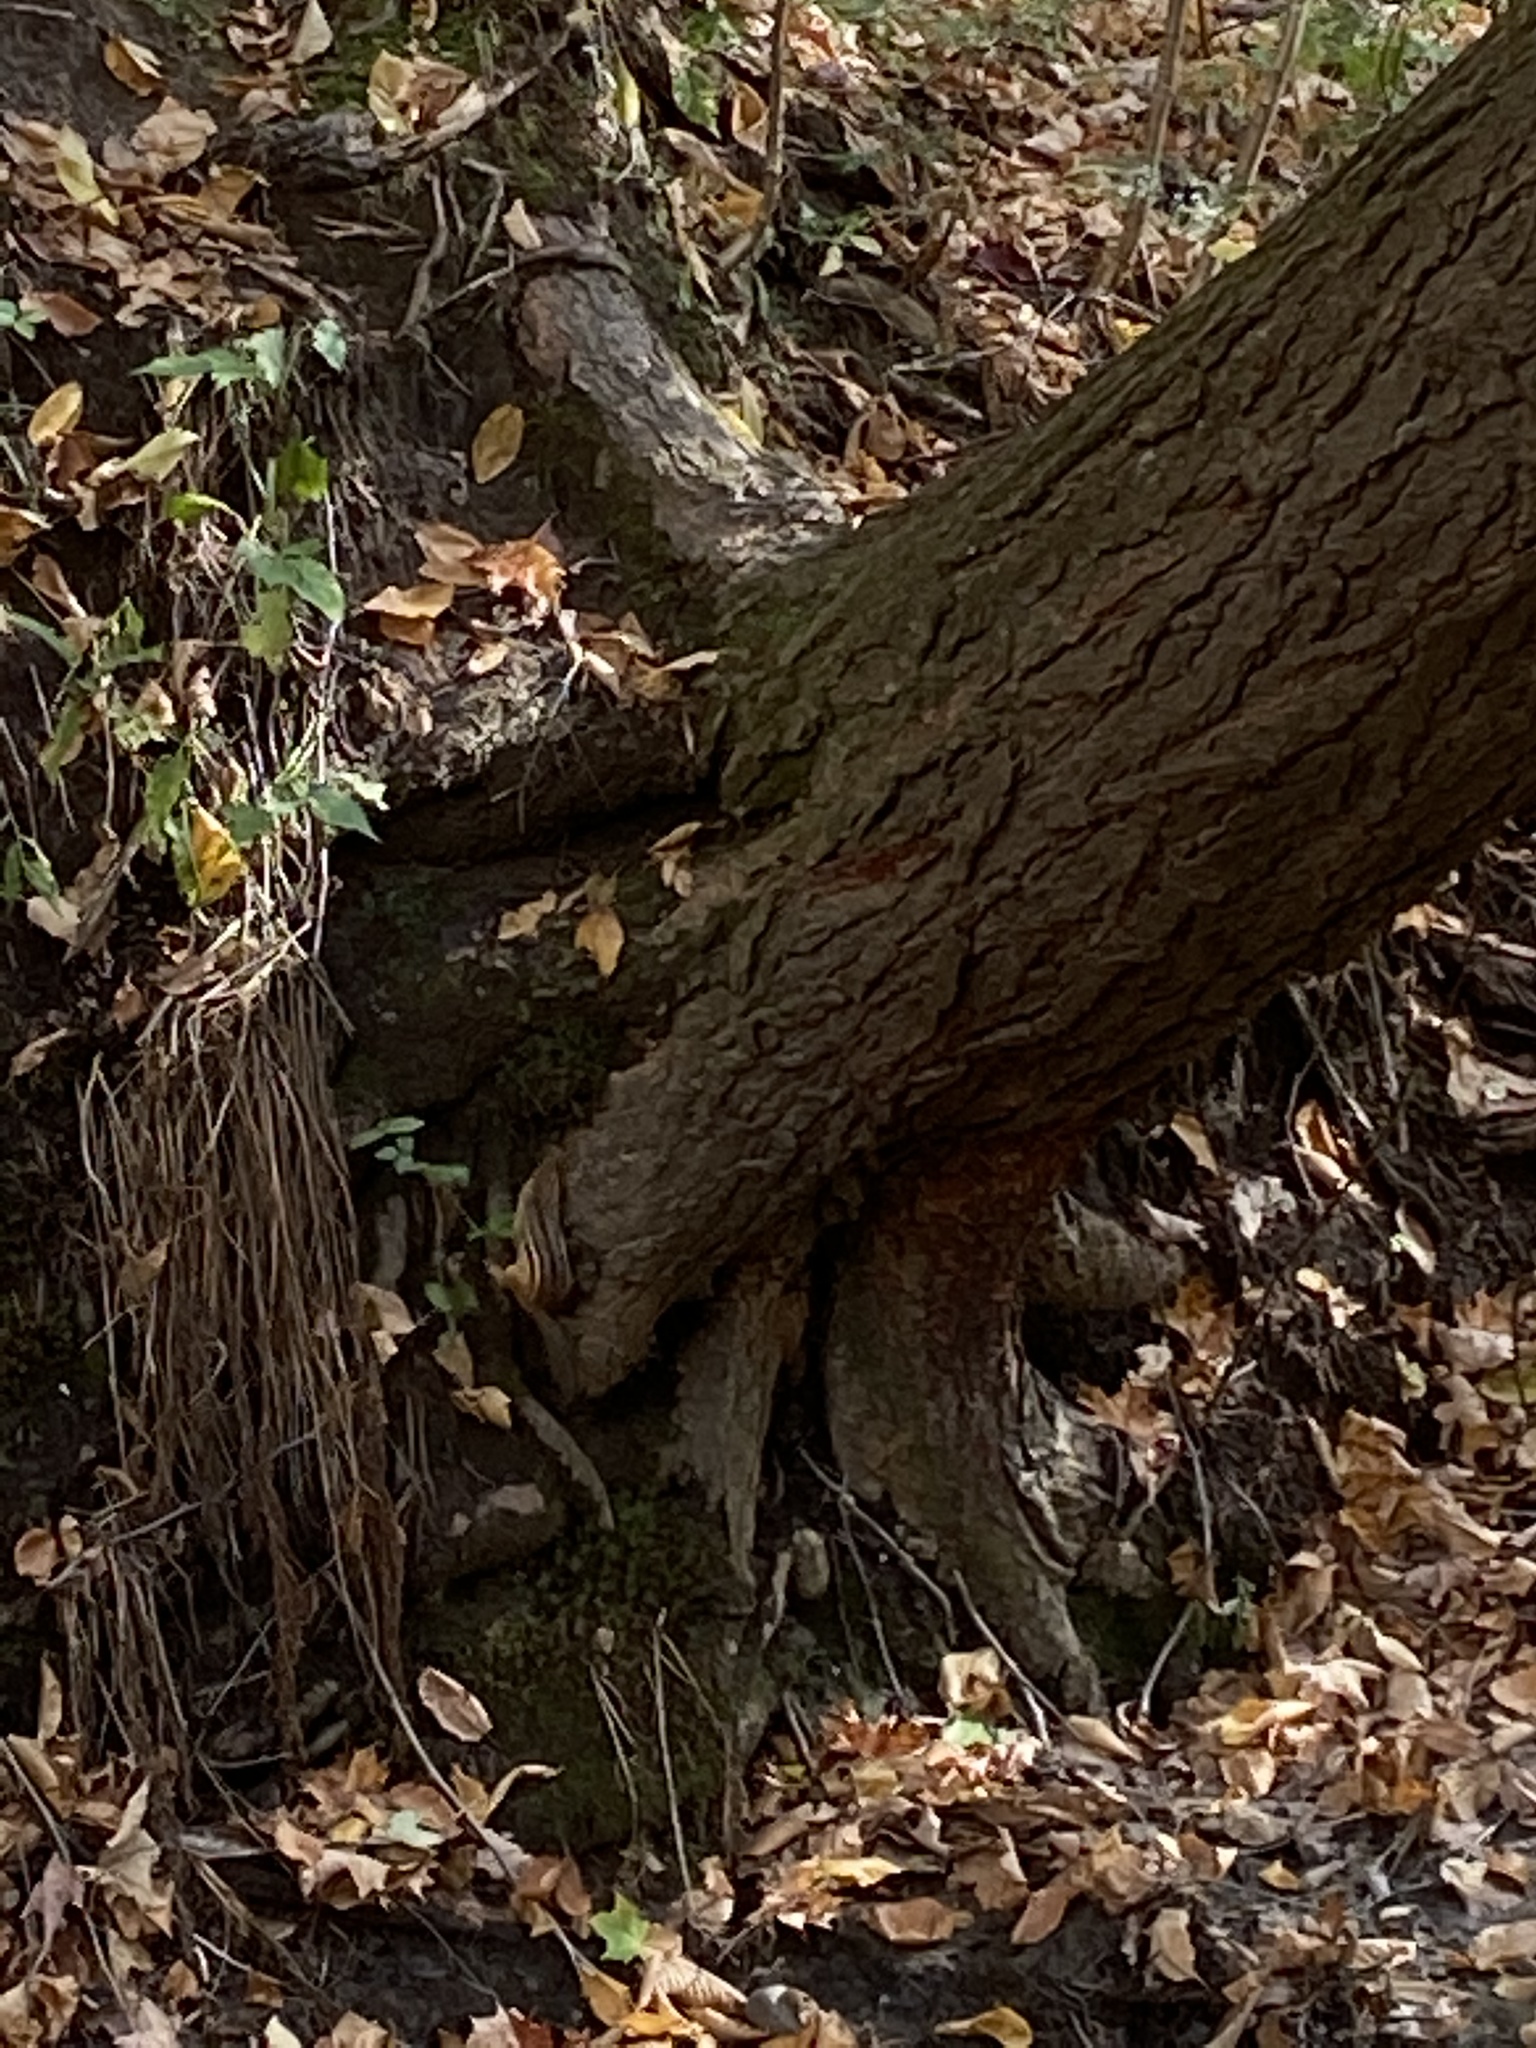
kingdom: Animalia
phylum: Chordata
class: Mammalia
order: Rodentia
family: Sciuridae
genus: Tamias
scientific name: Tamias striatus
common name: Eastern chipmunk
